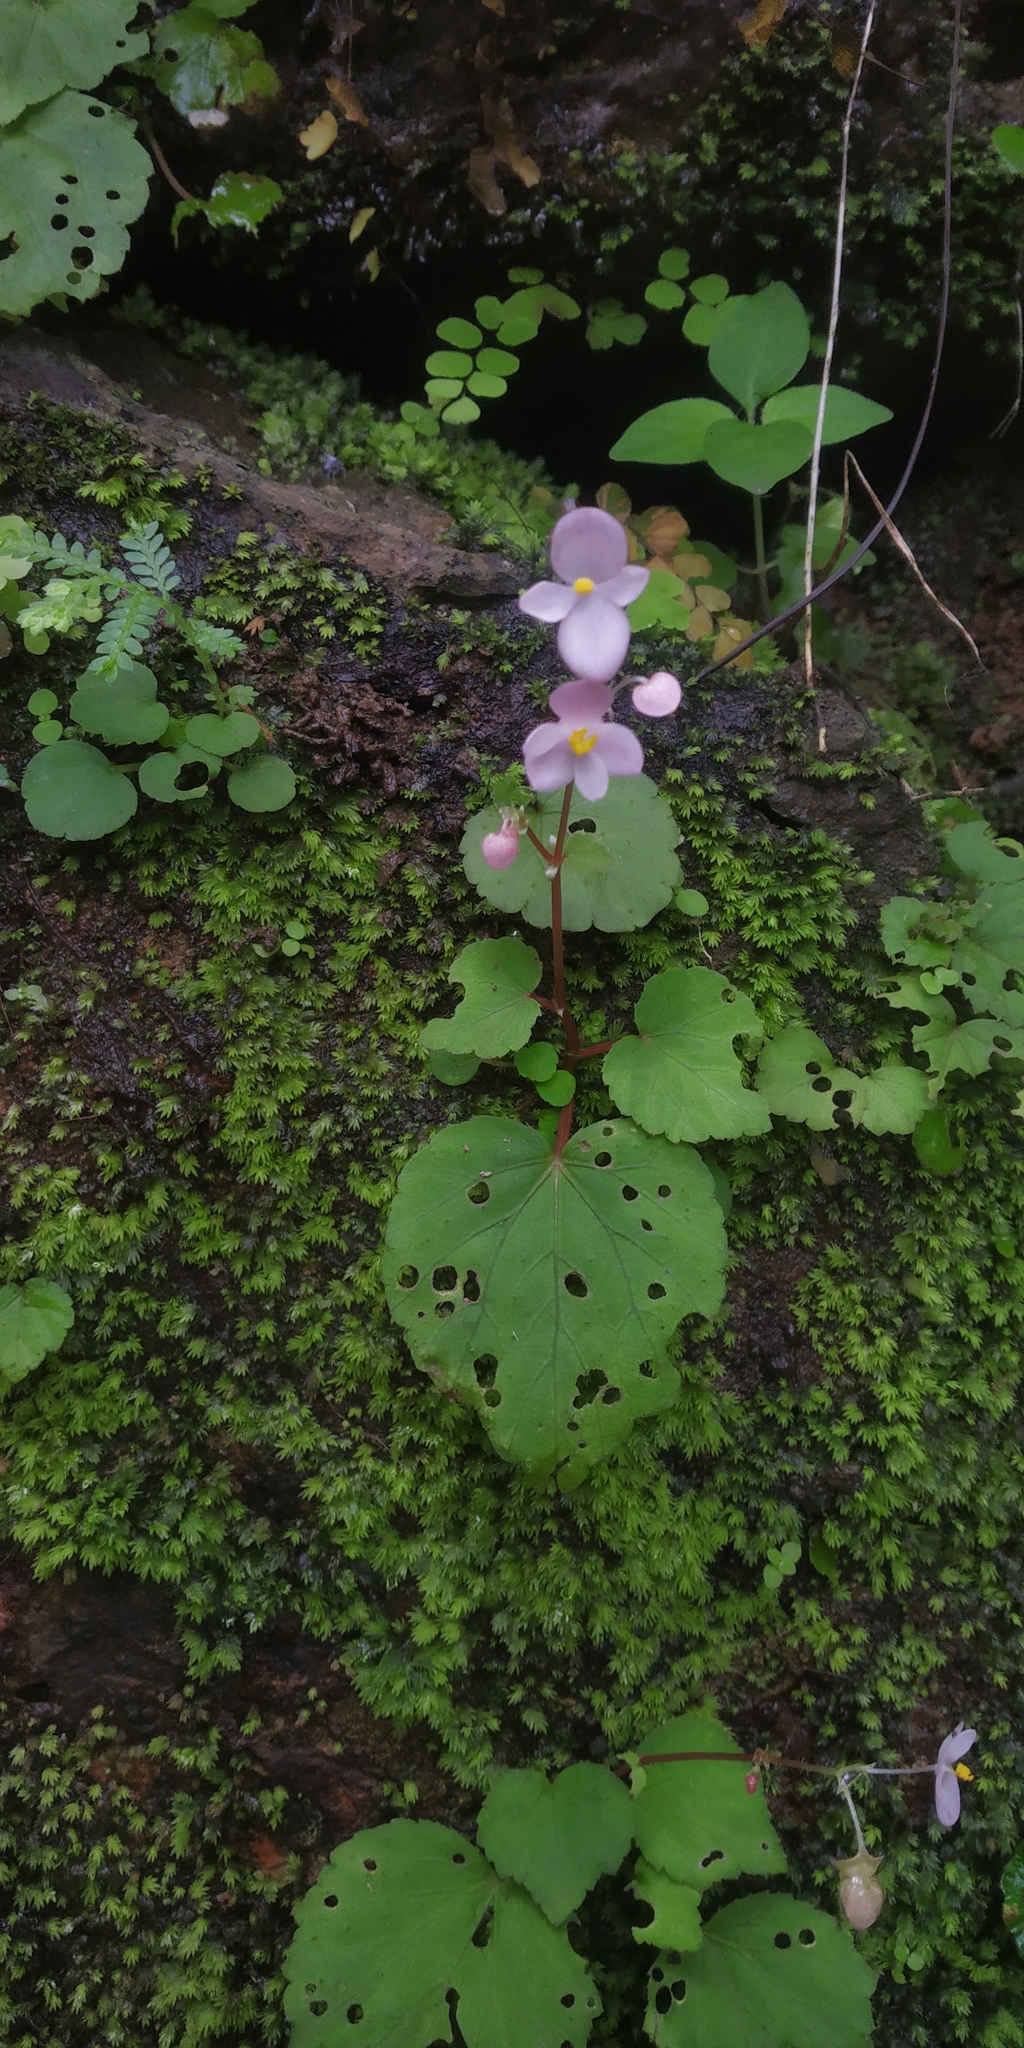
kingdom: Plantae
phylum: Tracheophyta
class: Magnoliopsida
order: Cucurbitales
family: Begoniaceae
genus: Begonia
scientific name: Begonia crenata
